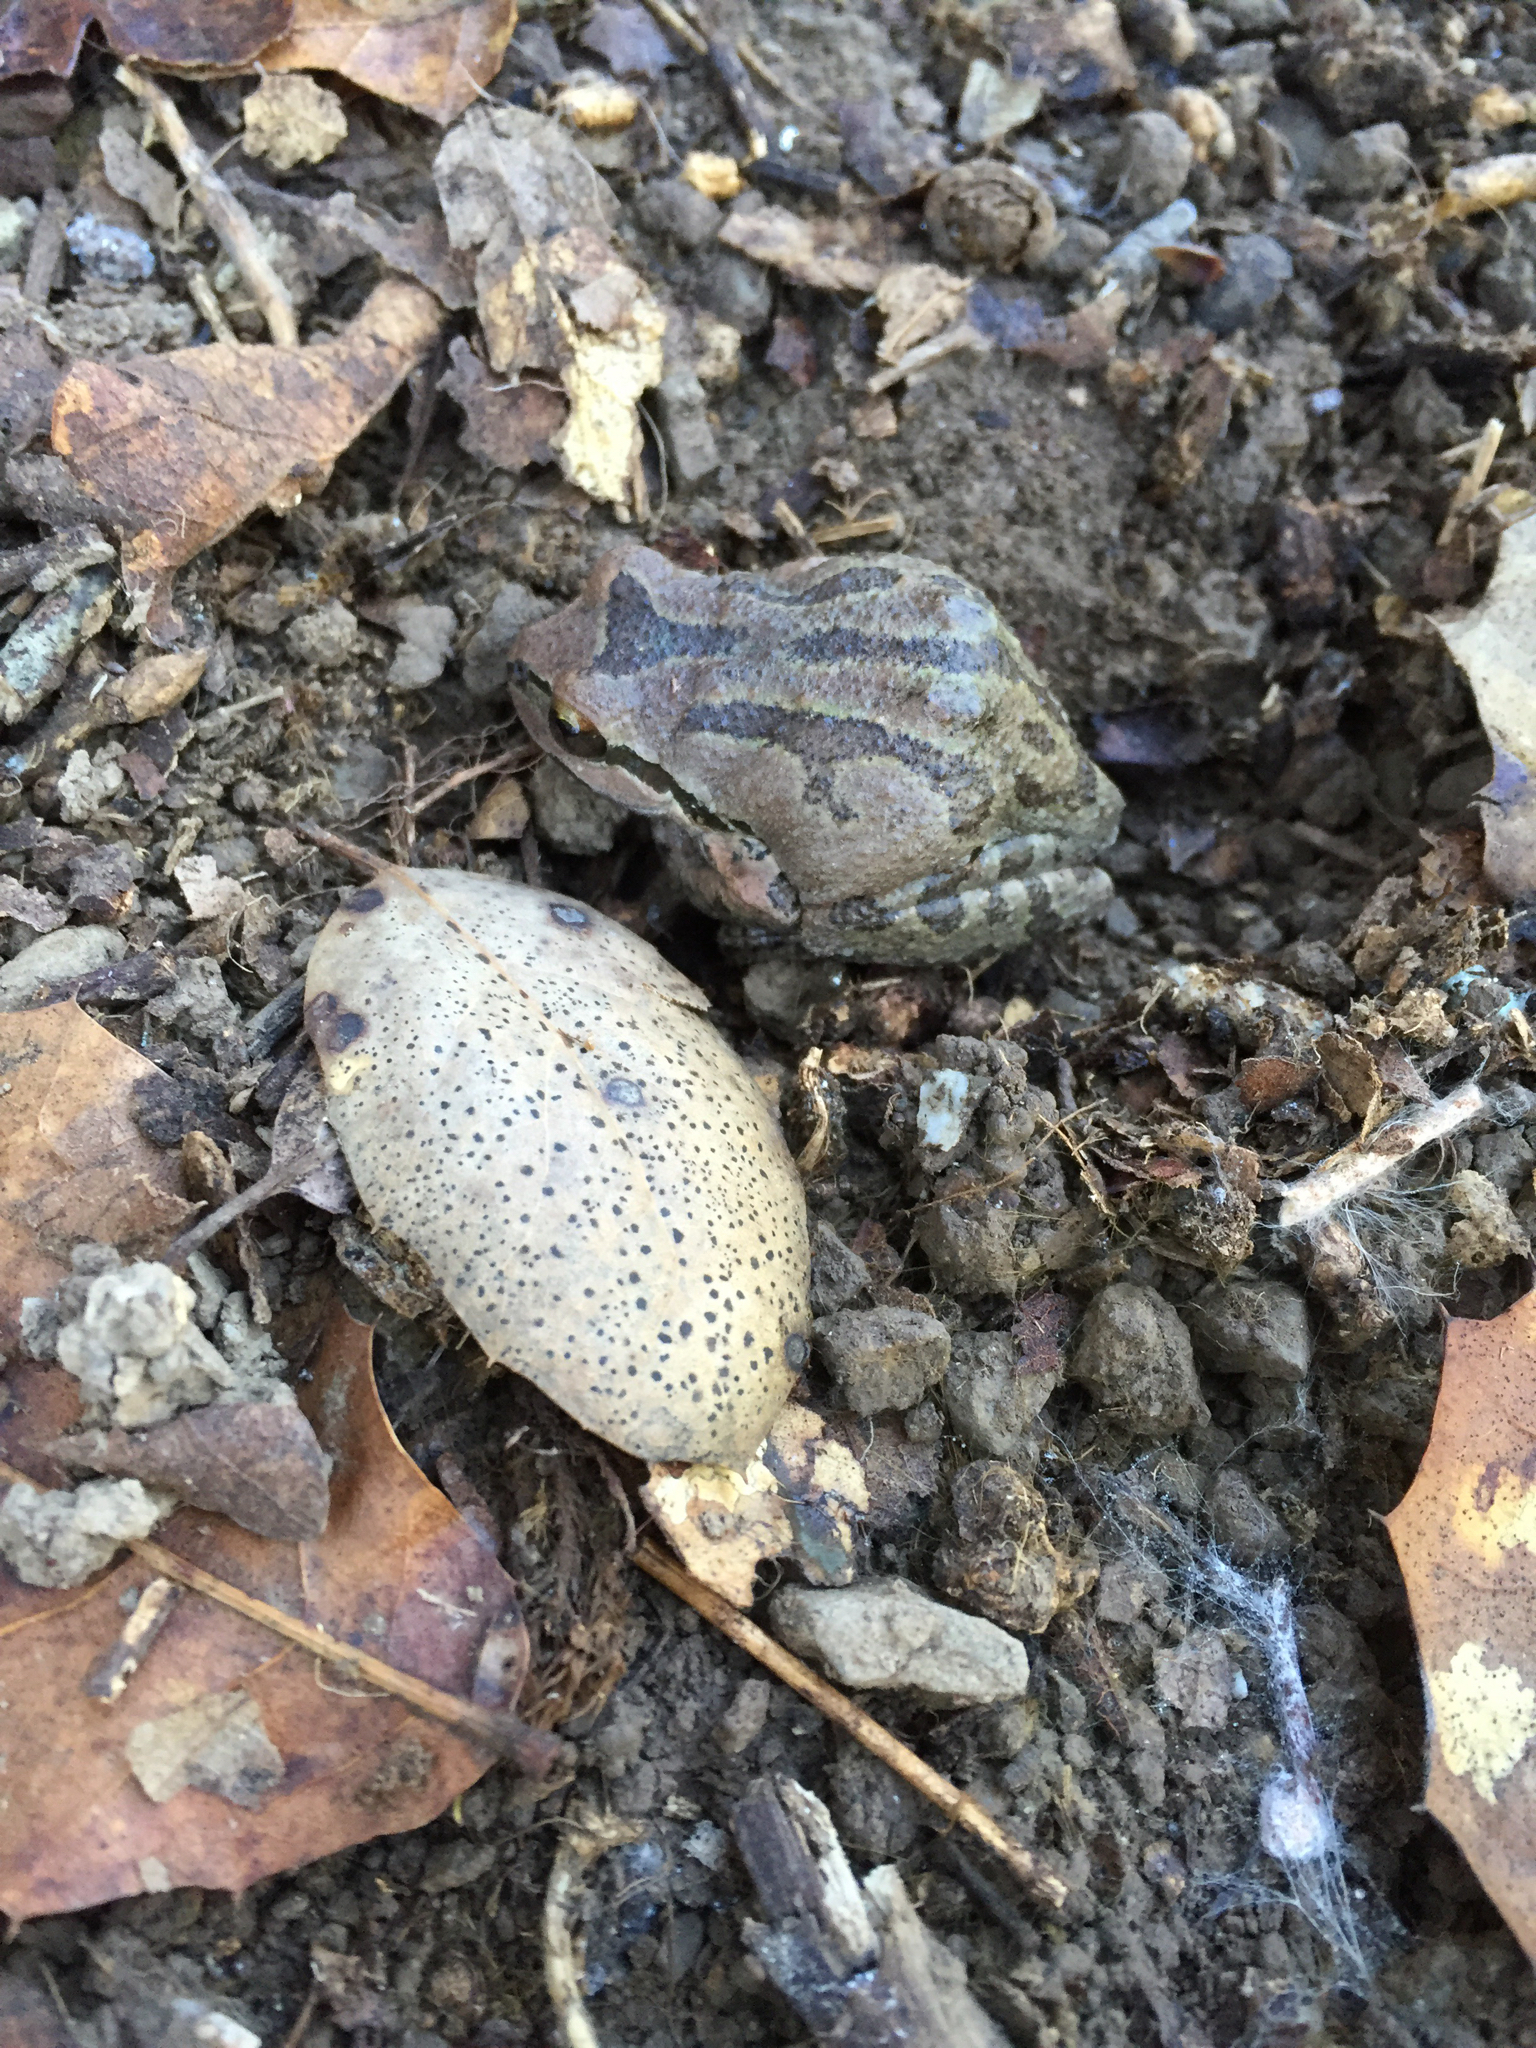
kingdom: Animalia
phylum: Chordata
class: Amphibia
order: Anura
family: Hylidae
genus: Pseudacris
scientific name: Pseudacris regilla
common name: Pacific chorus frog
